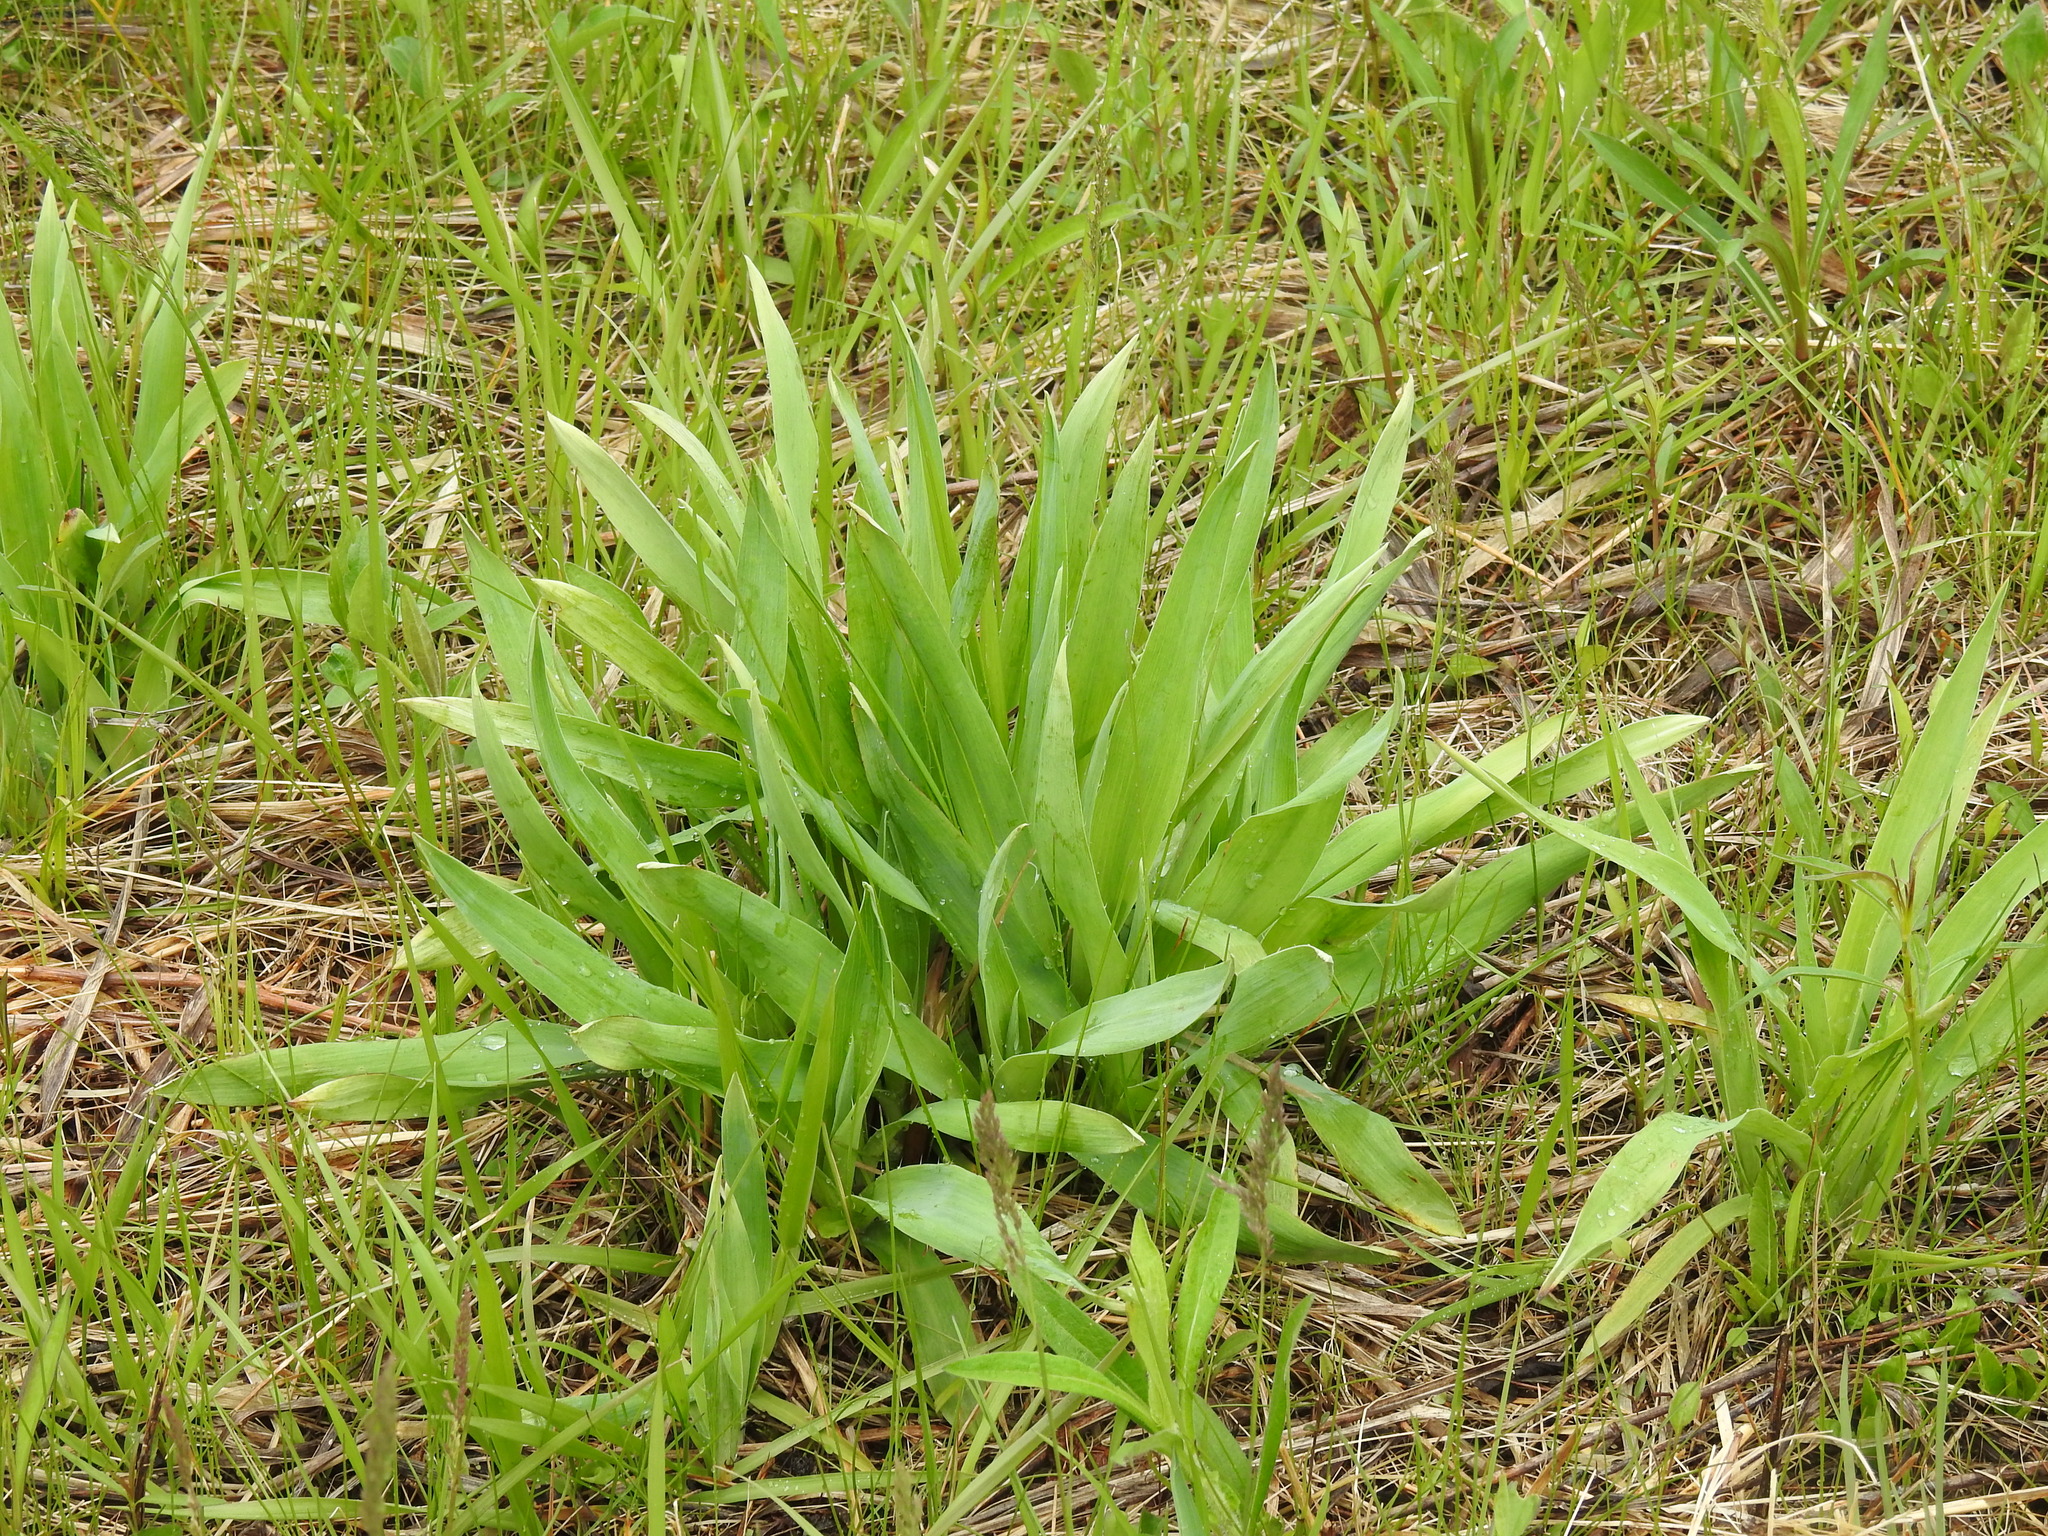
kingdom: Plantae
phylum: Tracheophyta
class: Magnoliopsida
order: Apiales
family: Apiaceae
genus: Eryngium
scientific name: Eryngium yuccifolium
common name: Button eryngo
